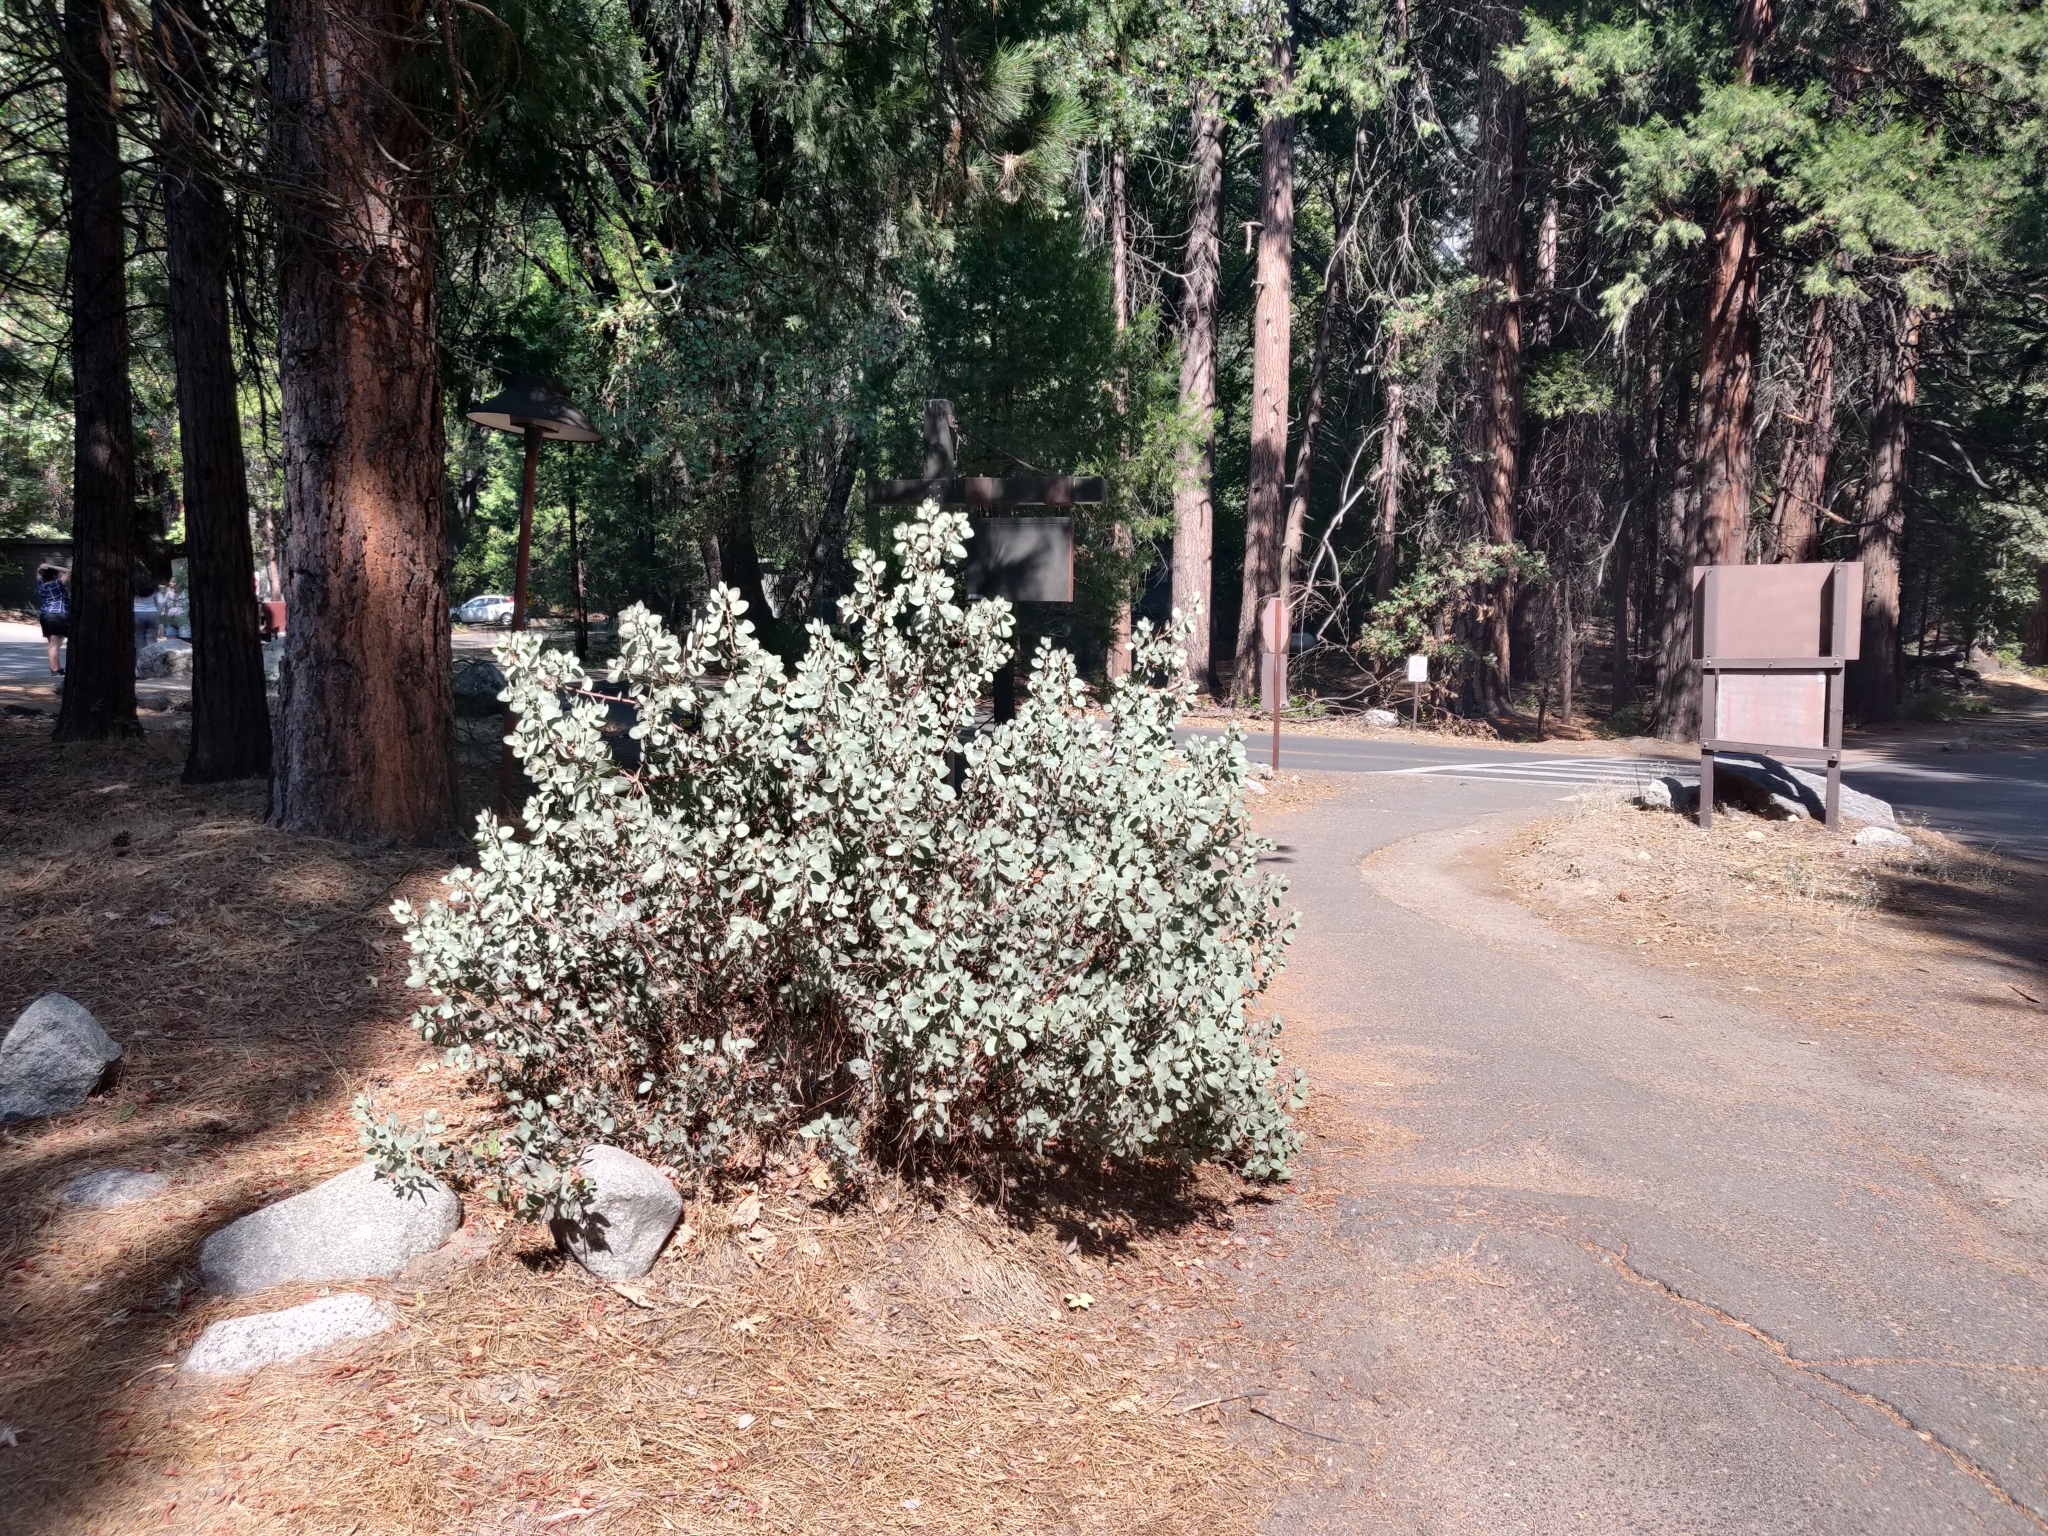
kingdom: Plantae
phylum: Tracheophyta
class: Magnoliopsida
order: Ericales
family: Ericaceae
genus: Arctostaphylos
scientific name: Arctostaphylos viscida
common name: White-leaf manzanita
